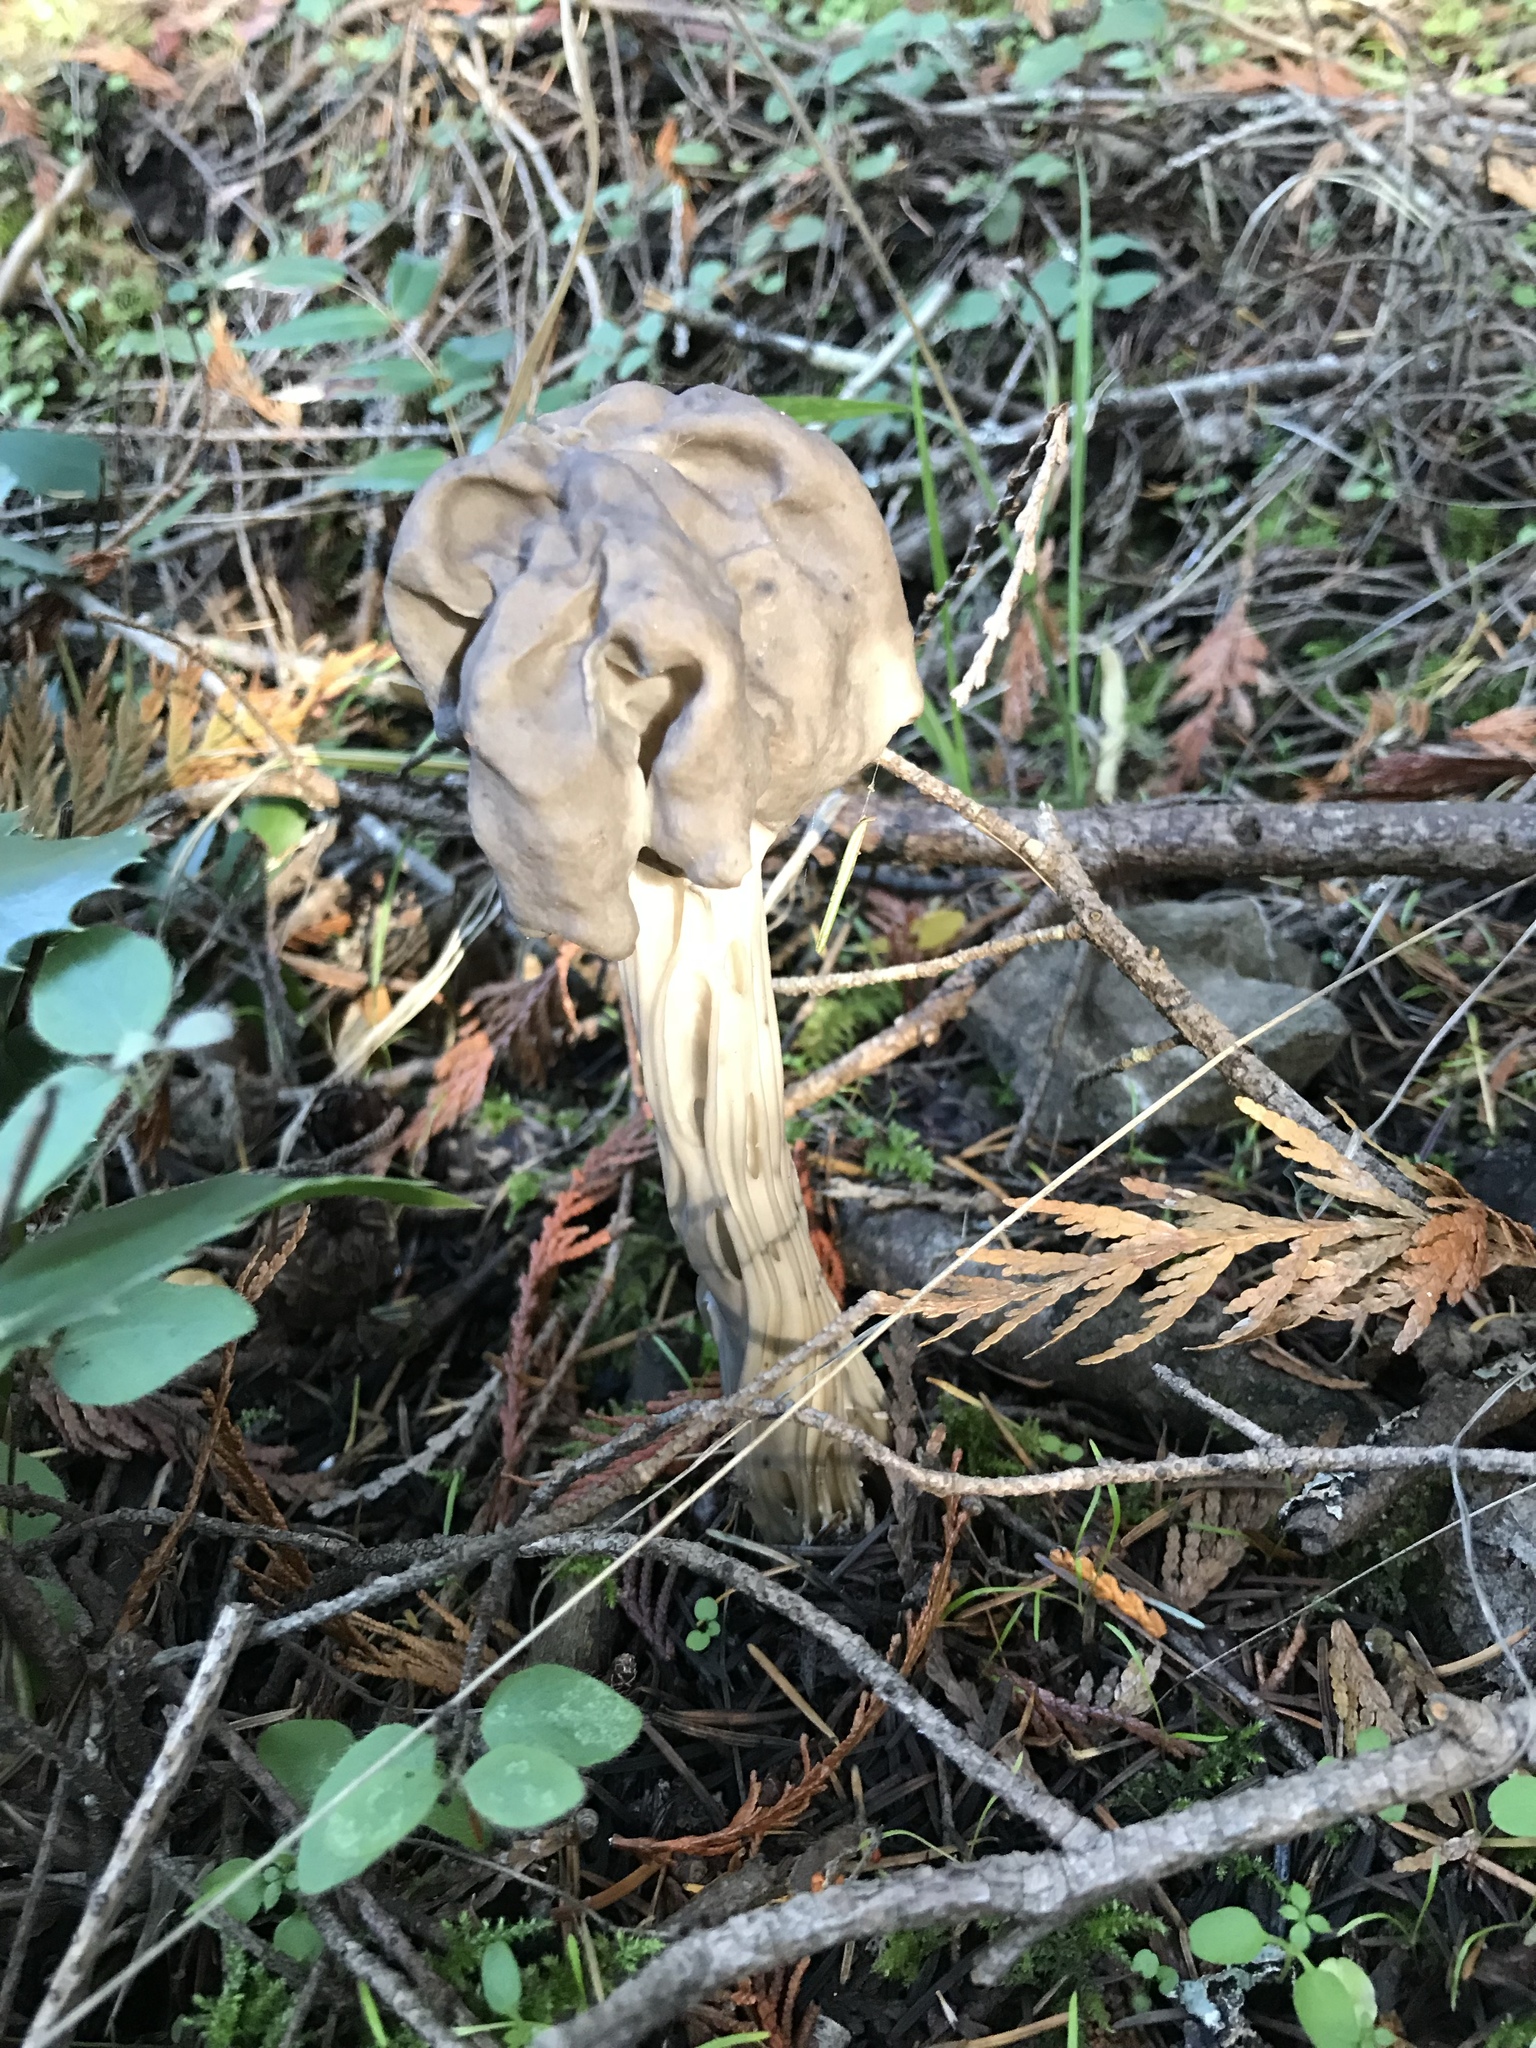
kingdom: Fungi
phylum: Ascomycota
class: Pezizomycetes
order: Pezizales
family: Helvellaceae
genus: Helvella
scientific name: Helvella vespertina
